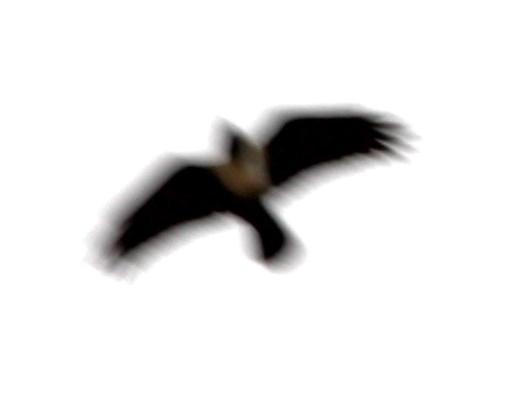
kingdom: Animalia
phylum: Chordata
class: Aves
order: Passeriformes
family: Corvidae
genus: Corvus
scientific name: Corvus albus
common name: Pied crow
